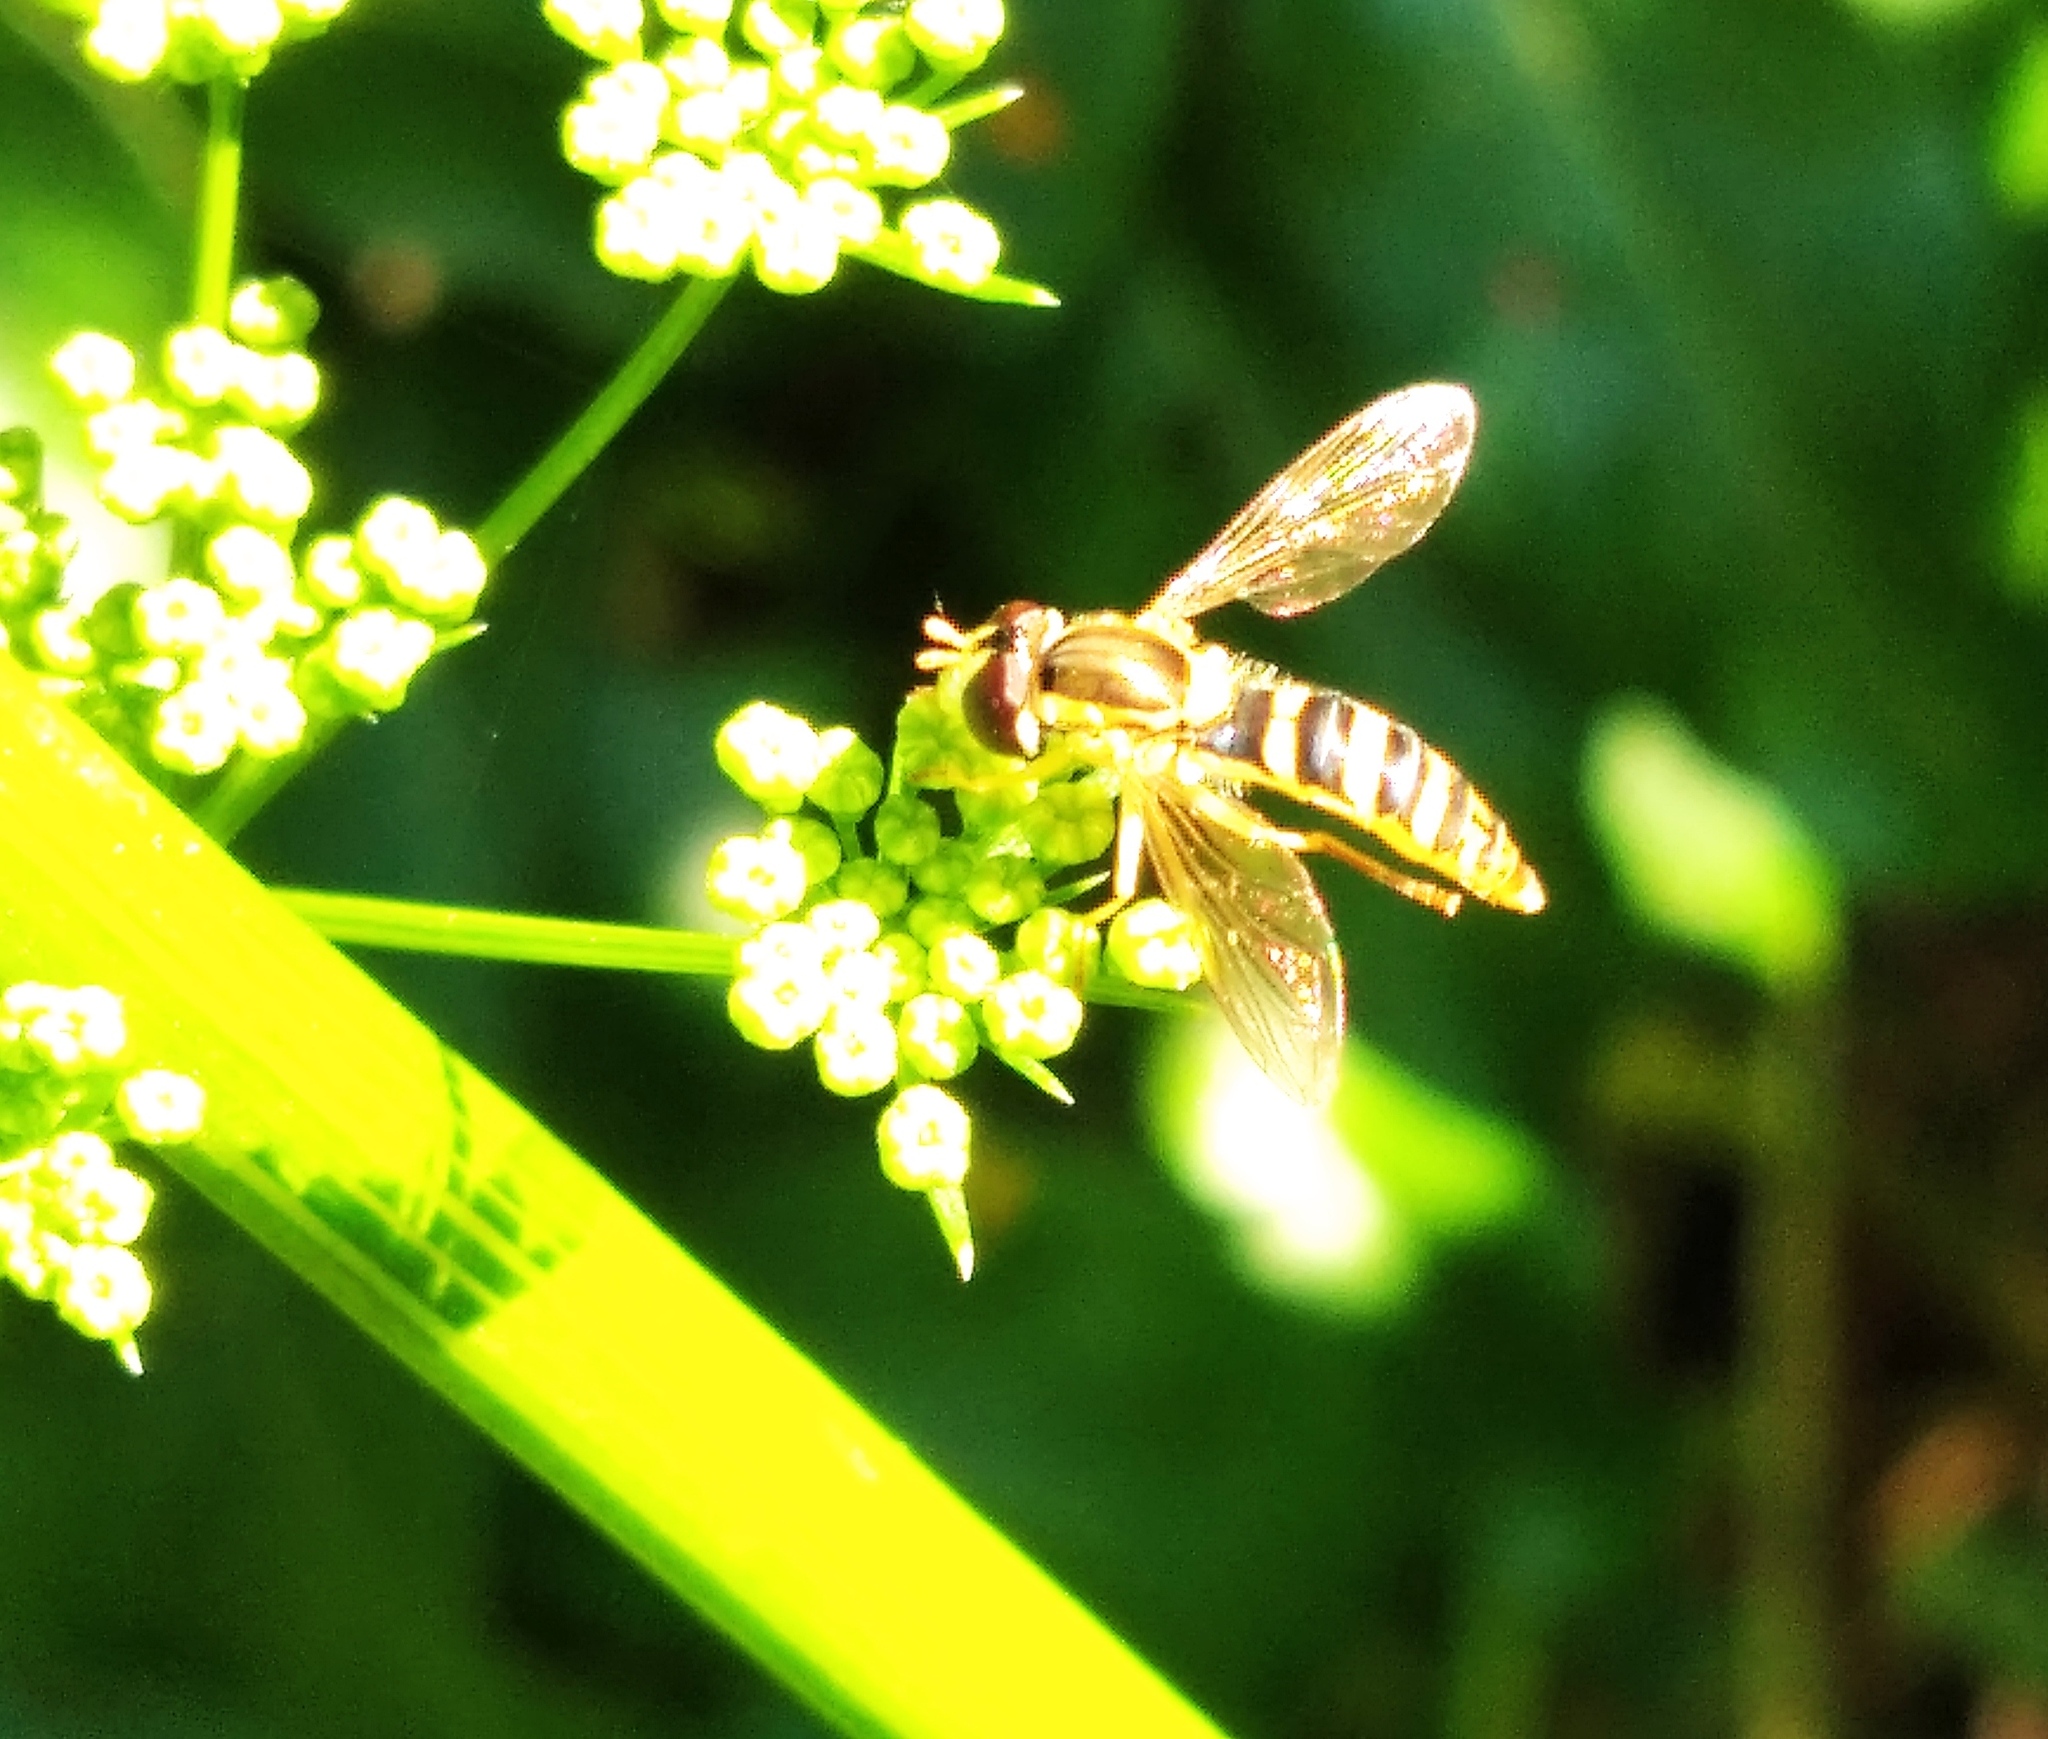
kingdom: Animalia
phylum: Arthropoda
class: Insecta
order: Diptera
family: Syrphidae
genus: Sphaerophoria
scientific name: Sphaerophoria scripta
